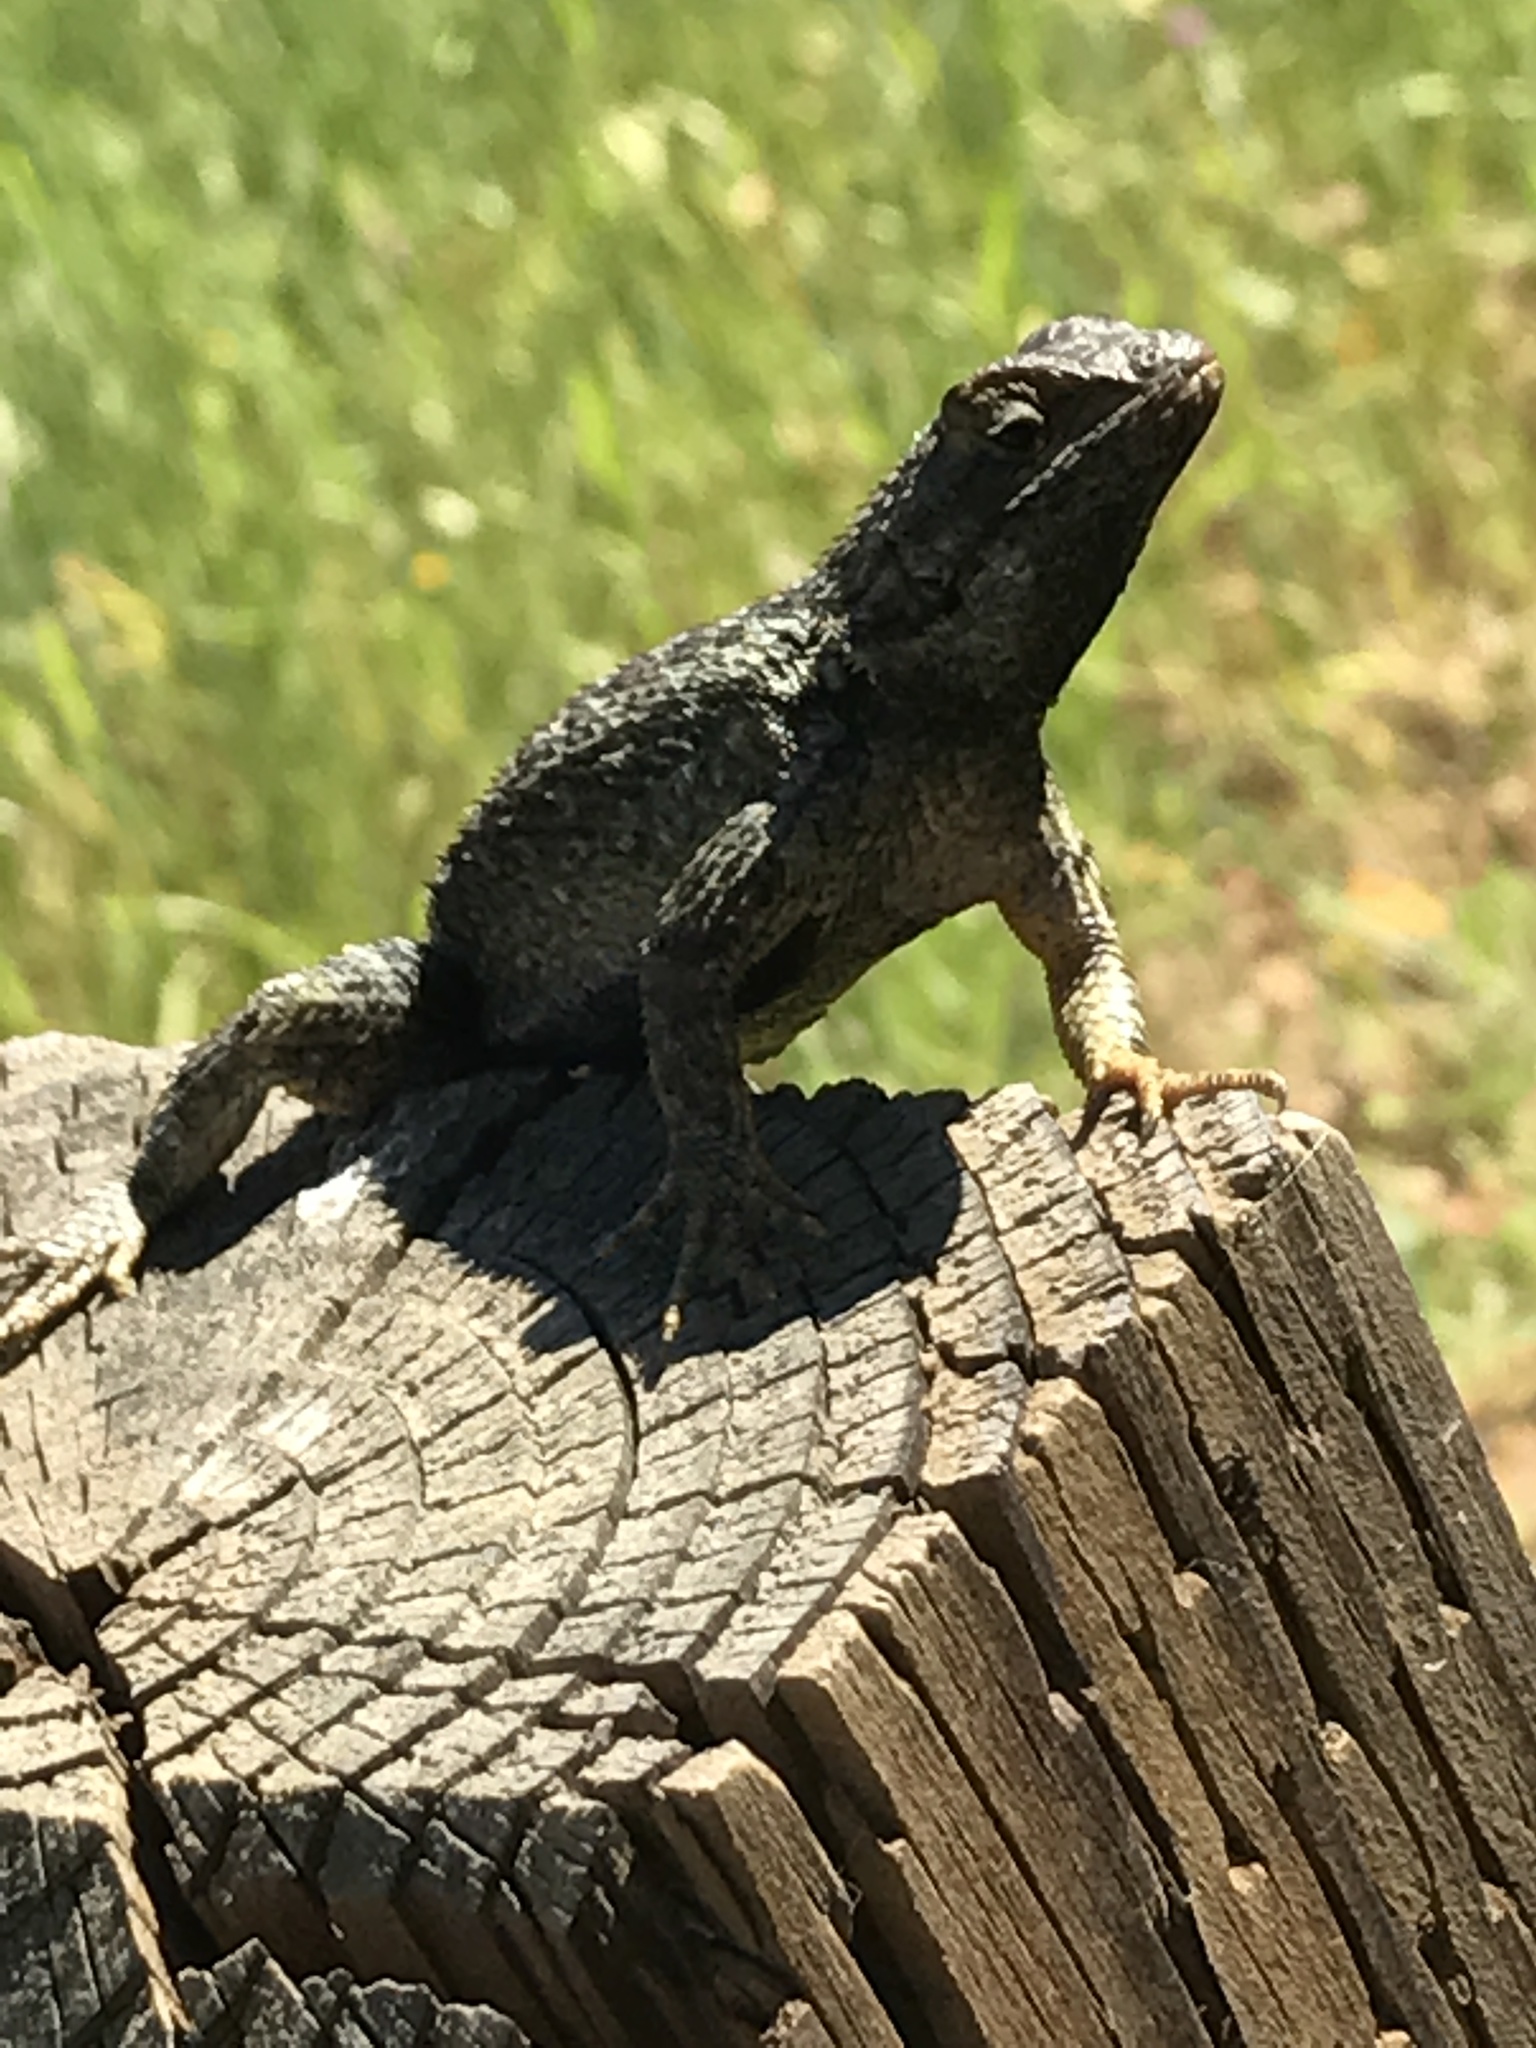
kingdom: Animalia
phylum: Chordata
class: Squamata
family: Phrynosomatidae
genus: Sceloporus
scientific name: Sceloporus occidentalis
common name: Western fence lizard
